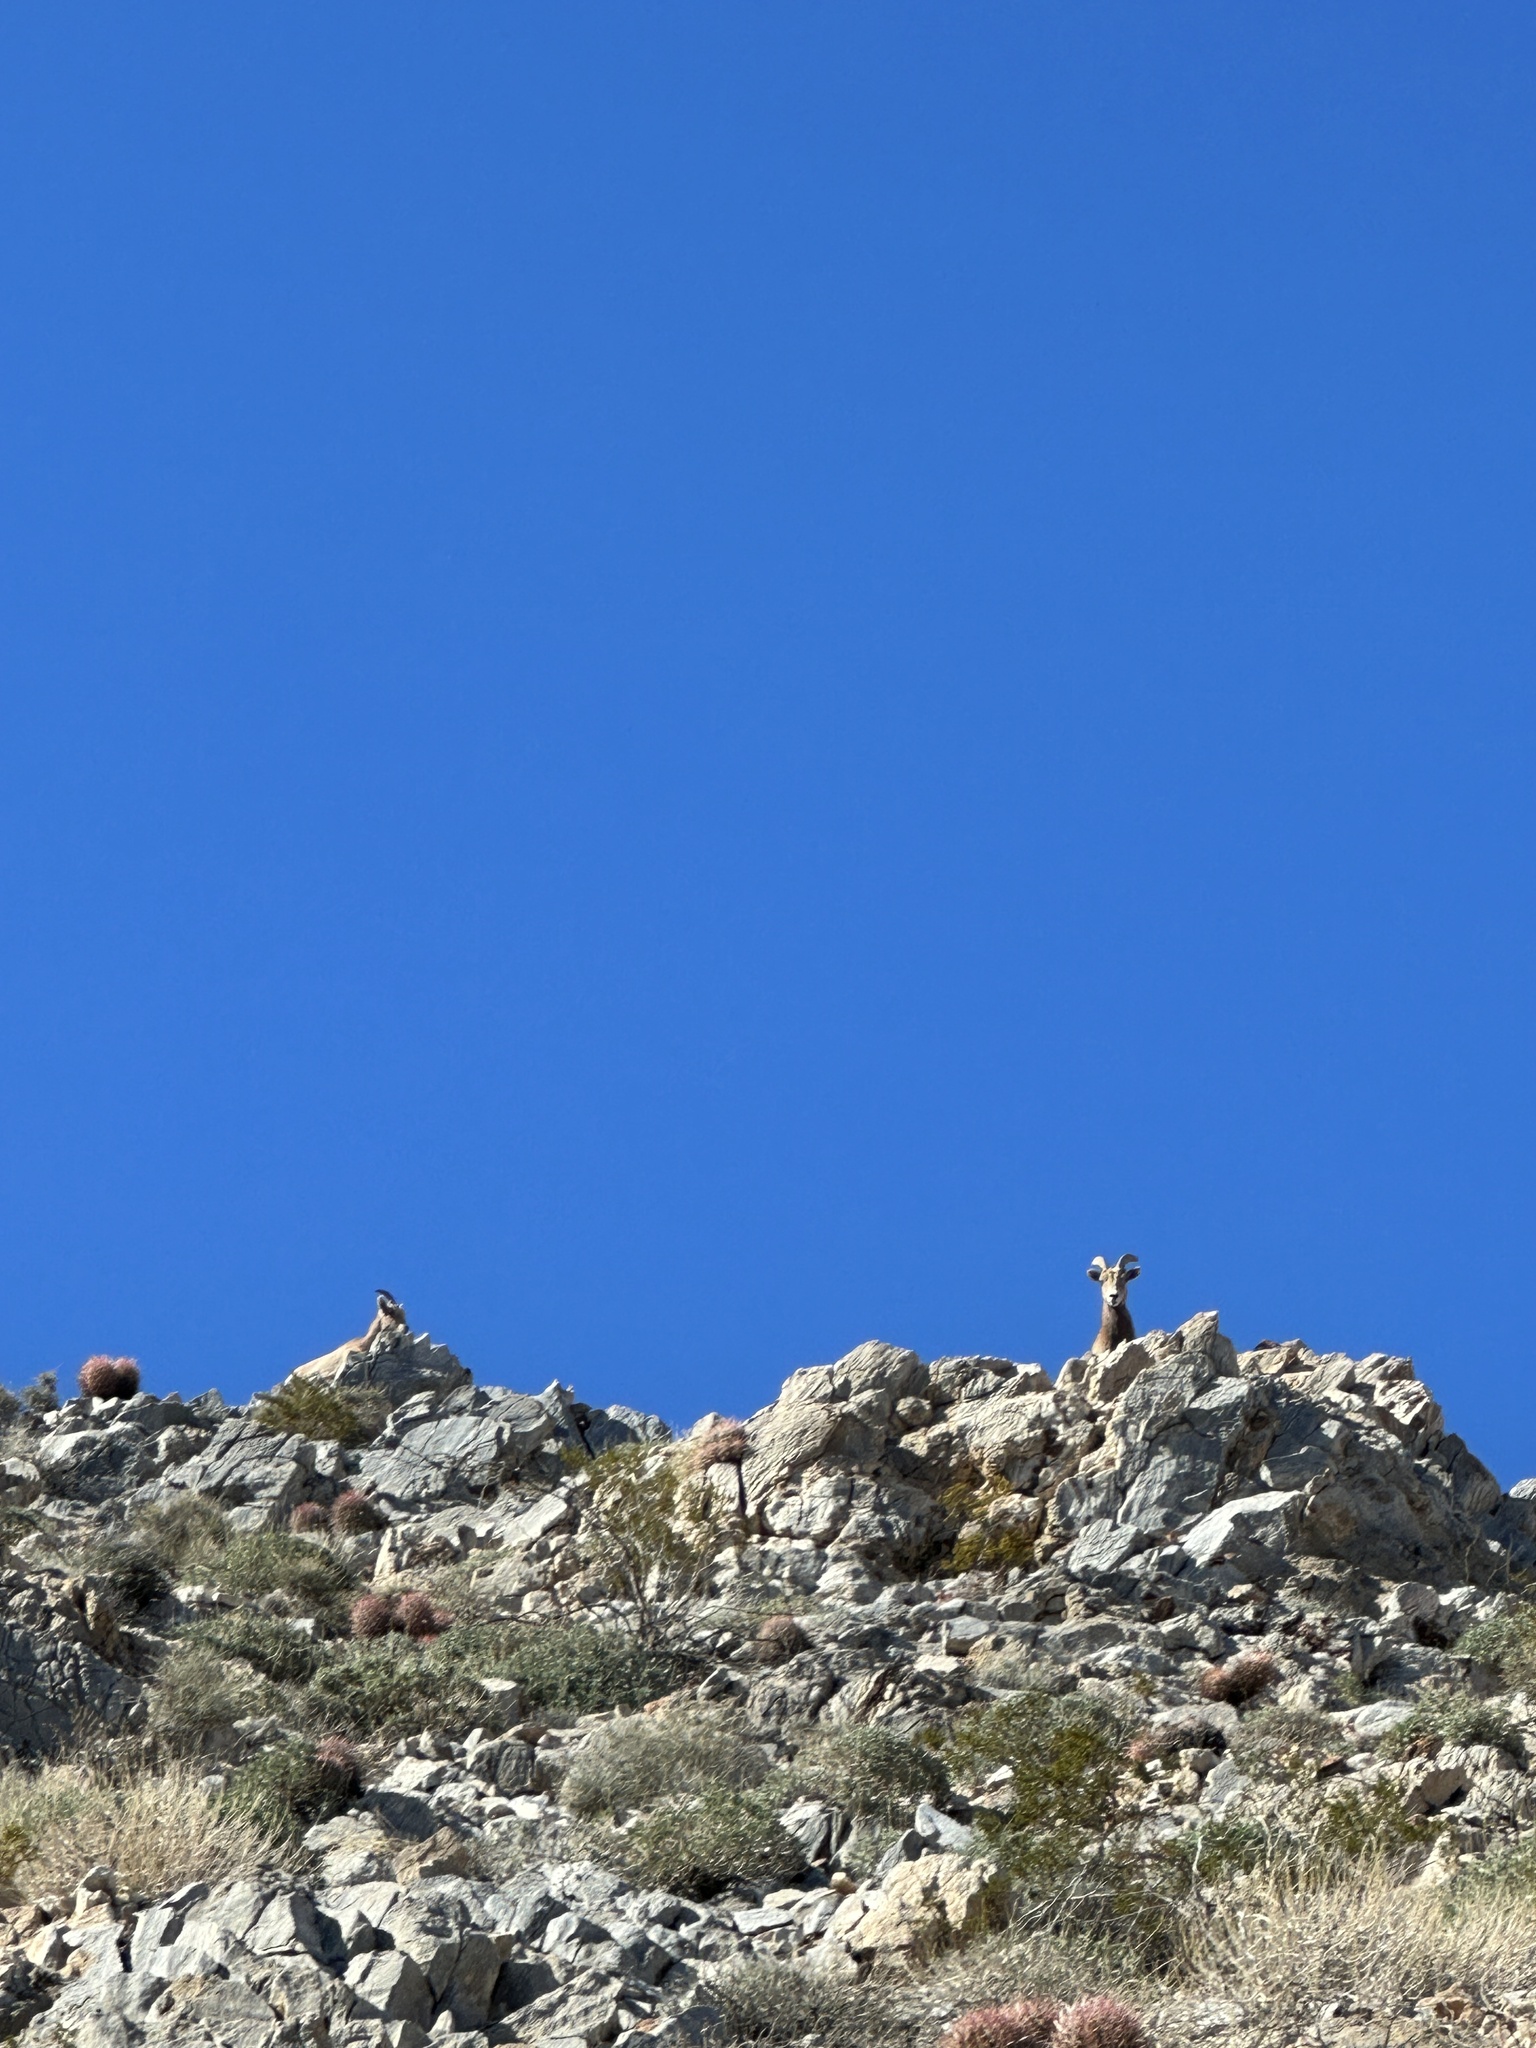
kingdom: Animalia
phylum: Chordata
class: Mammalia
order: Artiodactyla
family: Bovidae
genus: Ovis
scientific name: Ovis canadensis
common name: Bighorn sheep
